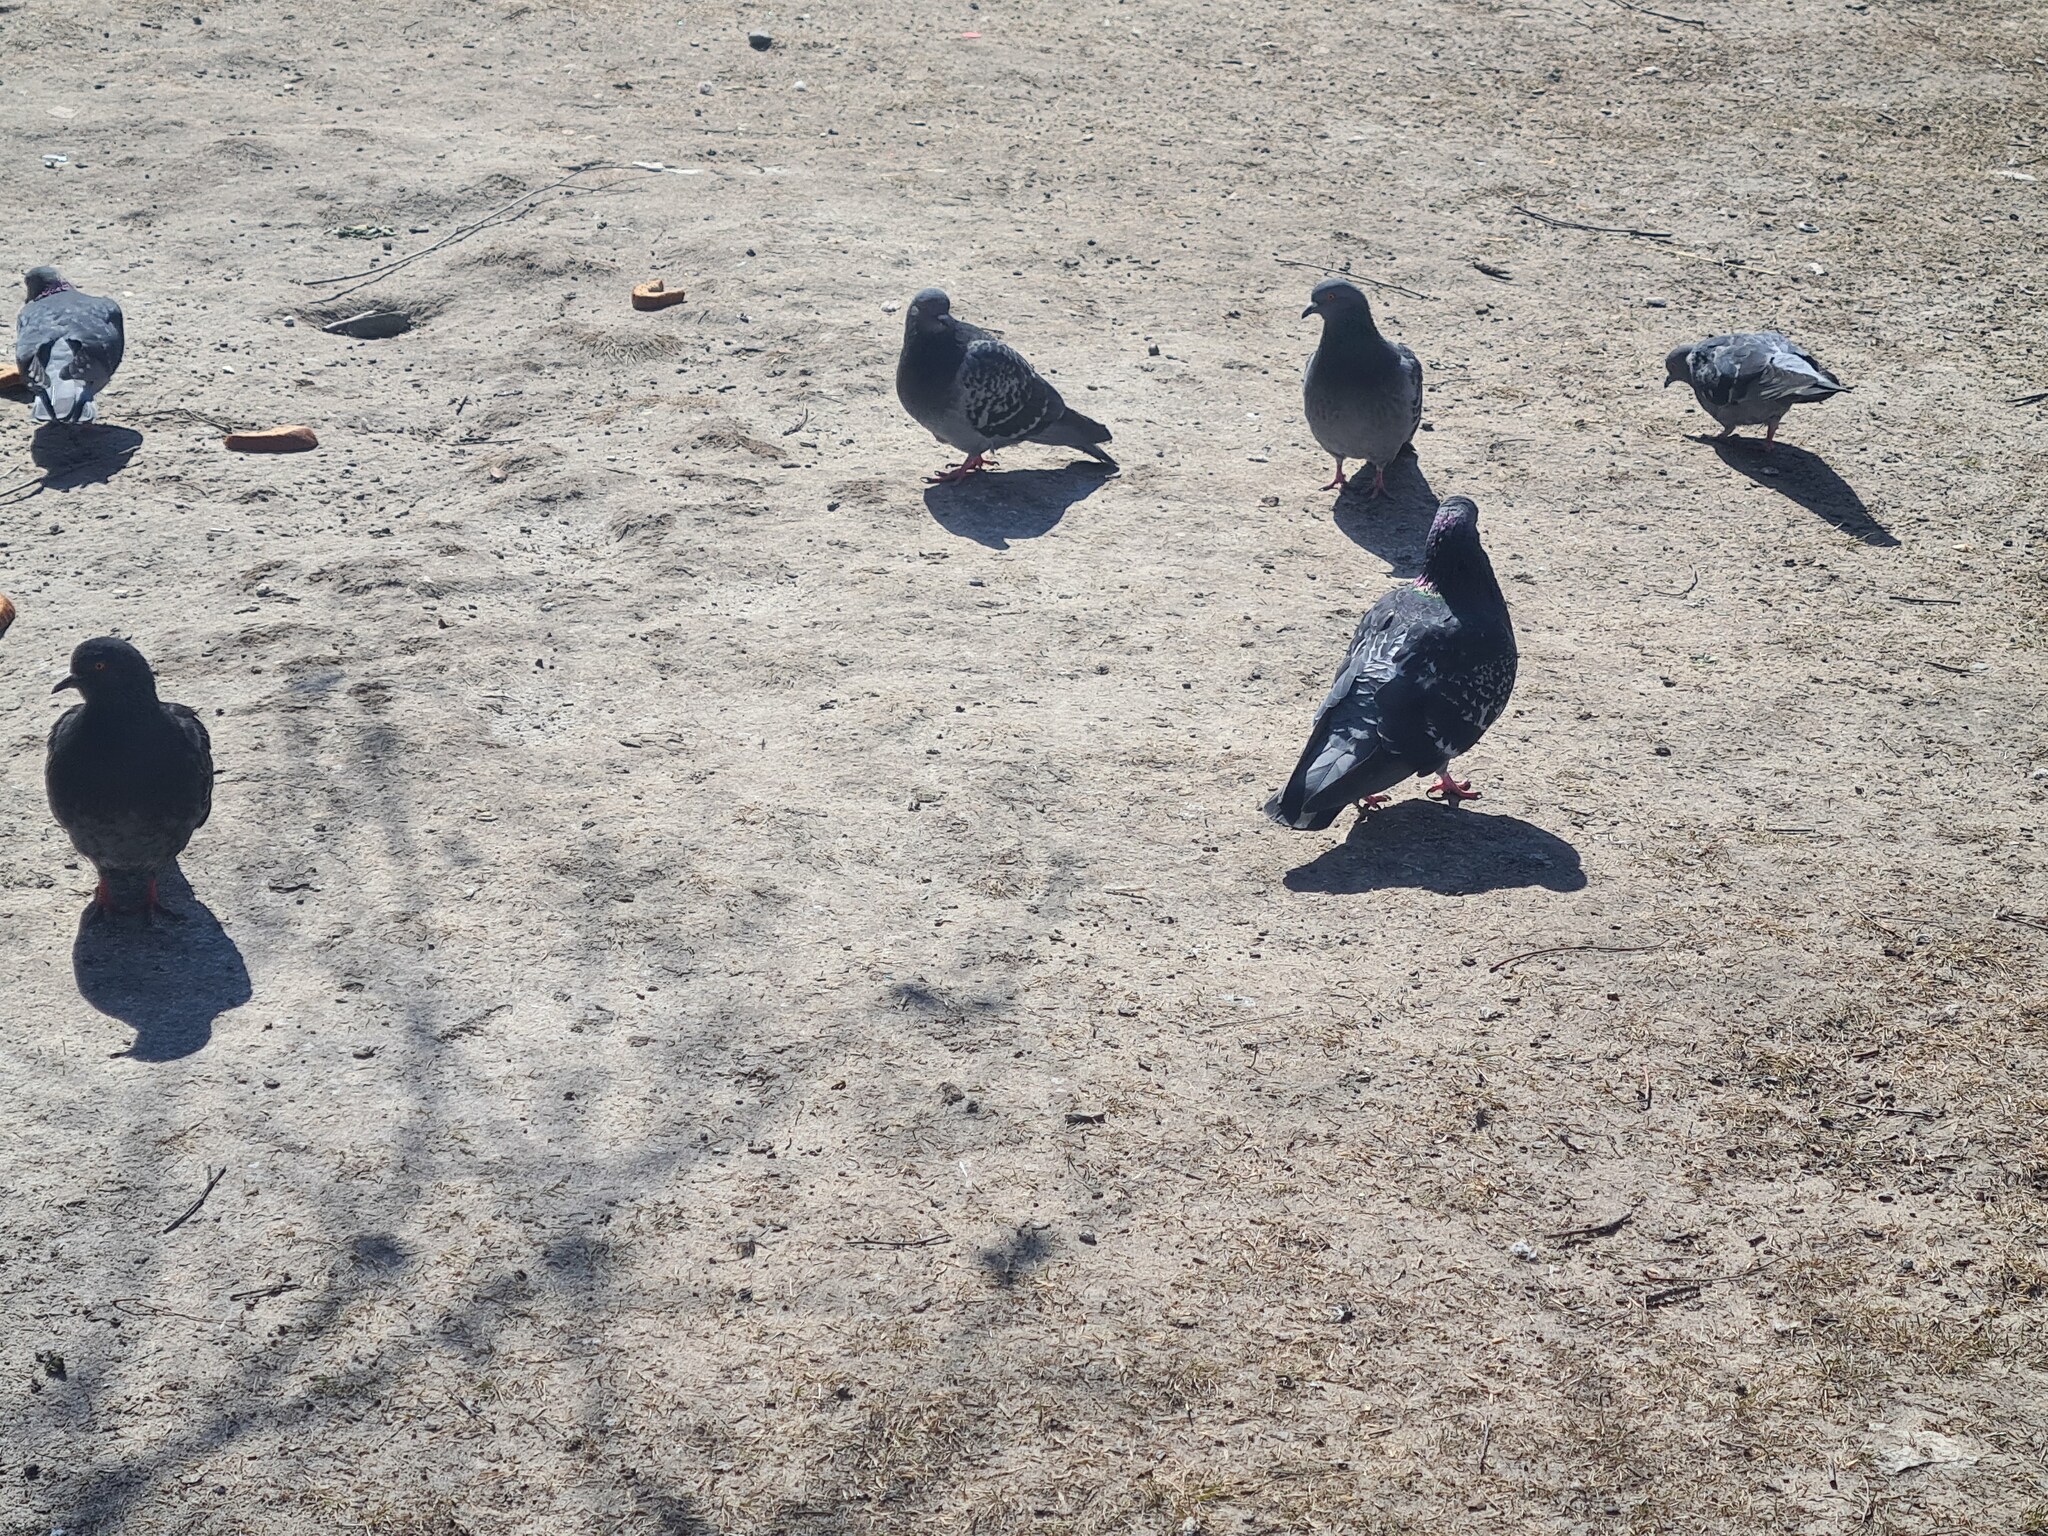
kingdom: Animalia
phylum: Chordata
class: Aves
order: Columbiformes
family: Columbidae
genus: Columba
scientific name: Columba livia
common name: Rock pigeon
